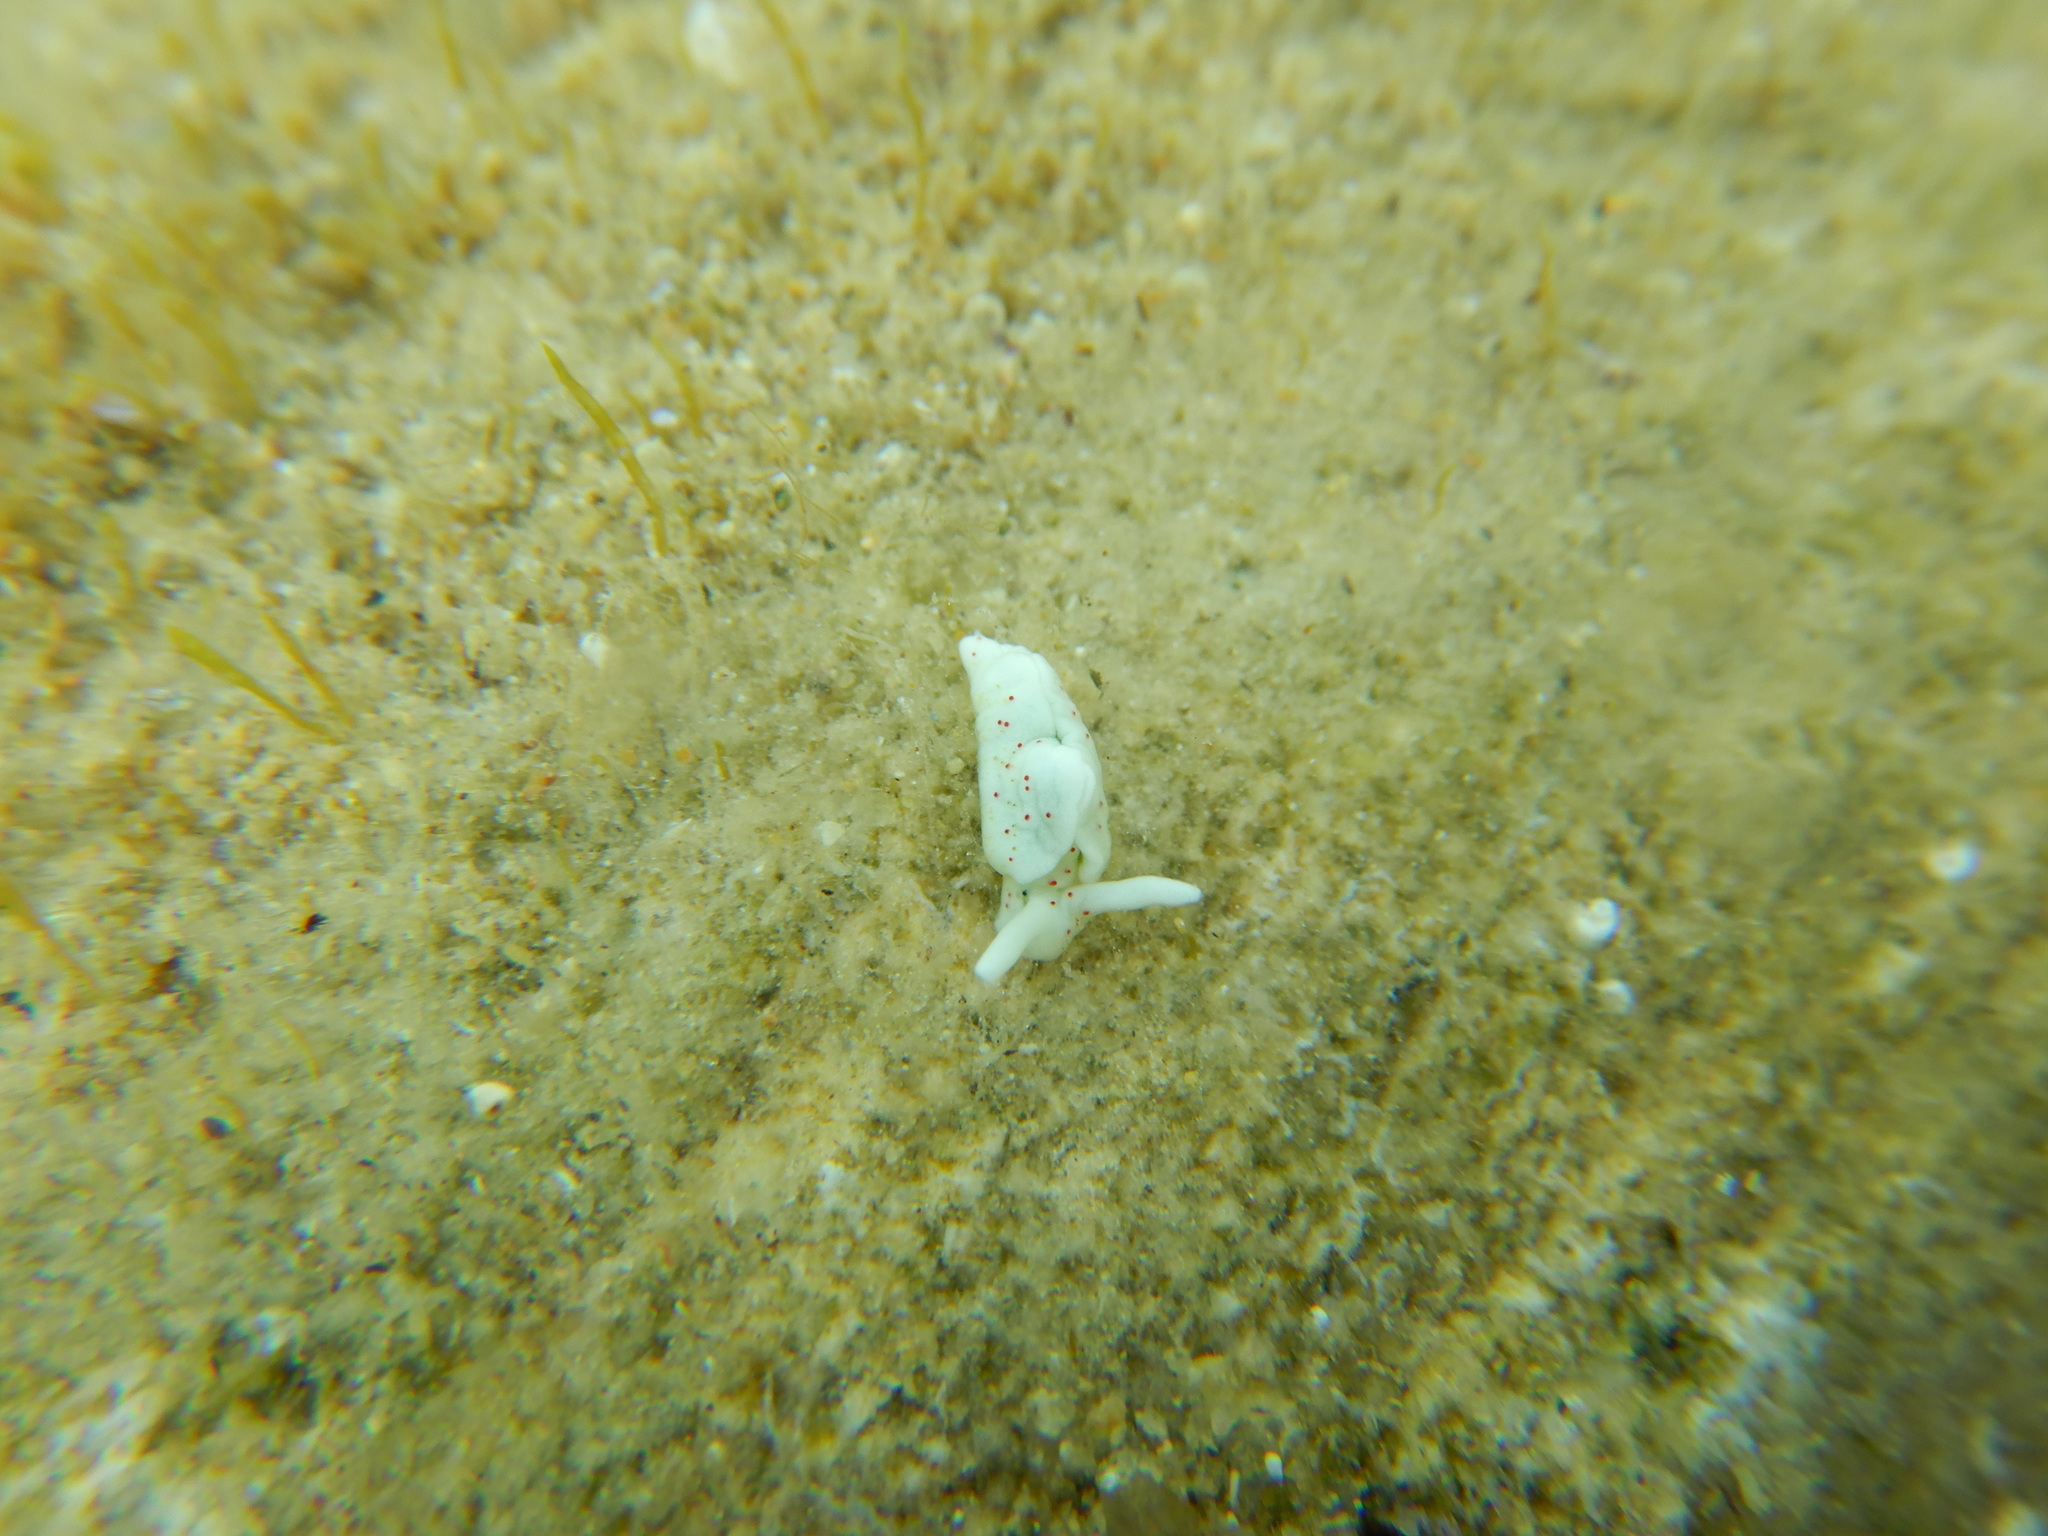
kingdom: Animalia
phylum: Mollusca
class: Gastropoda
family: Plakobranchidae
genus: Elysia
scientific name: Elysia timida
